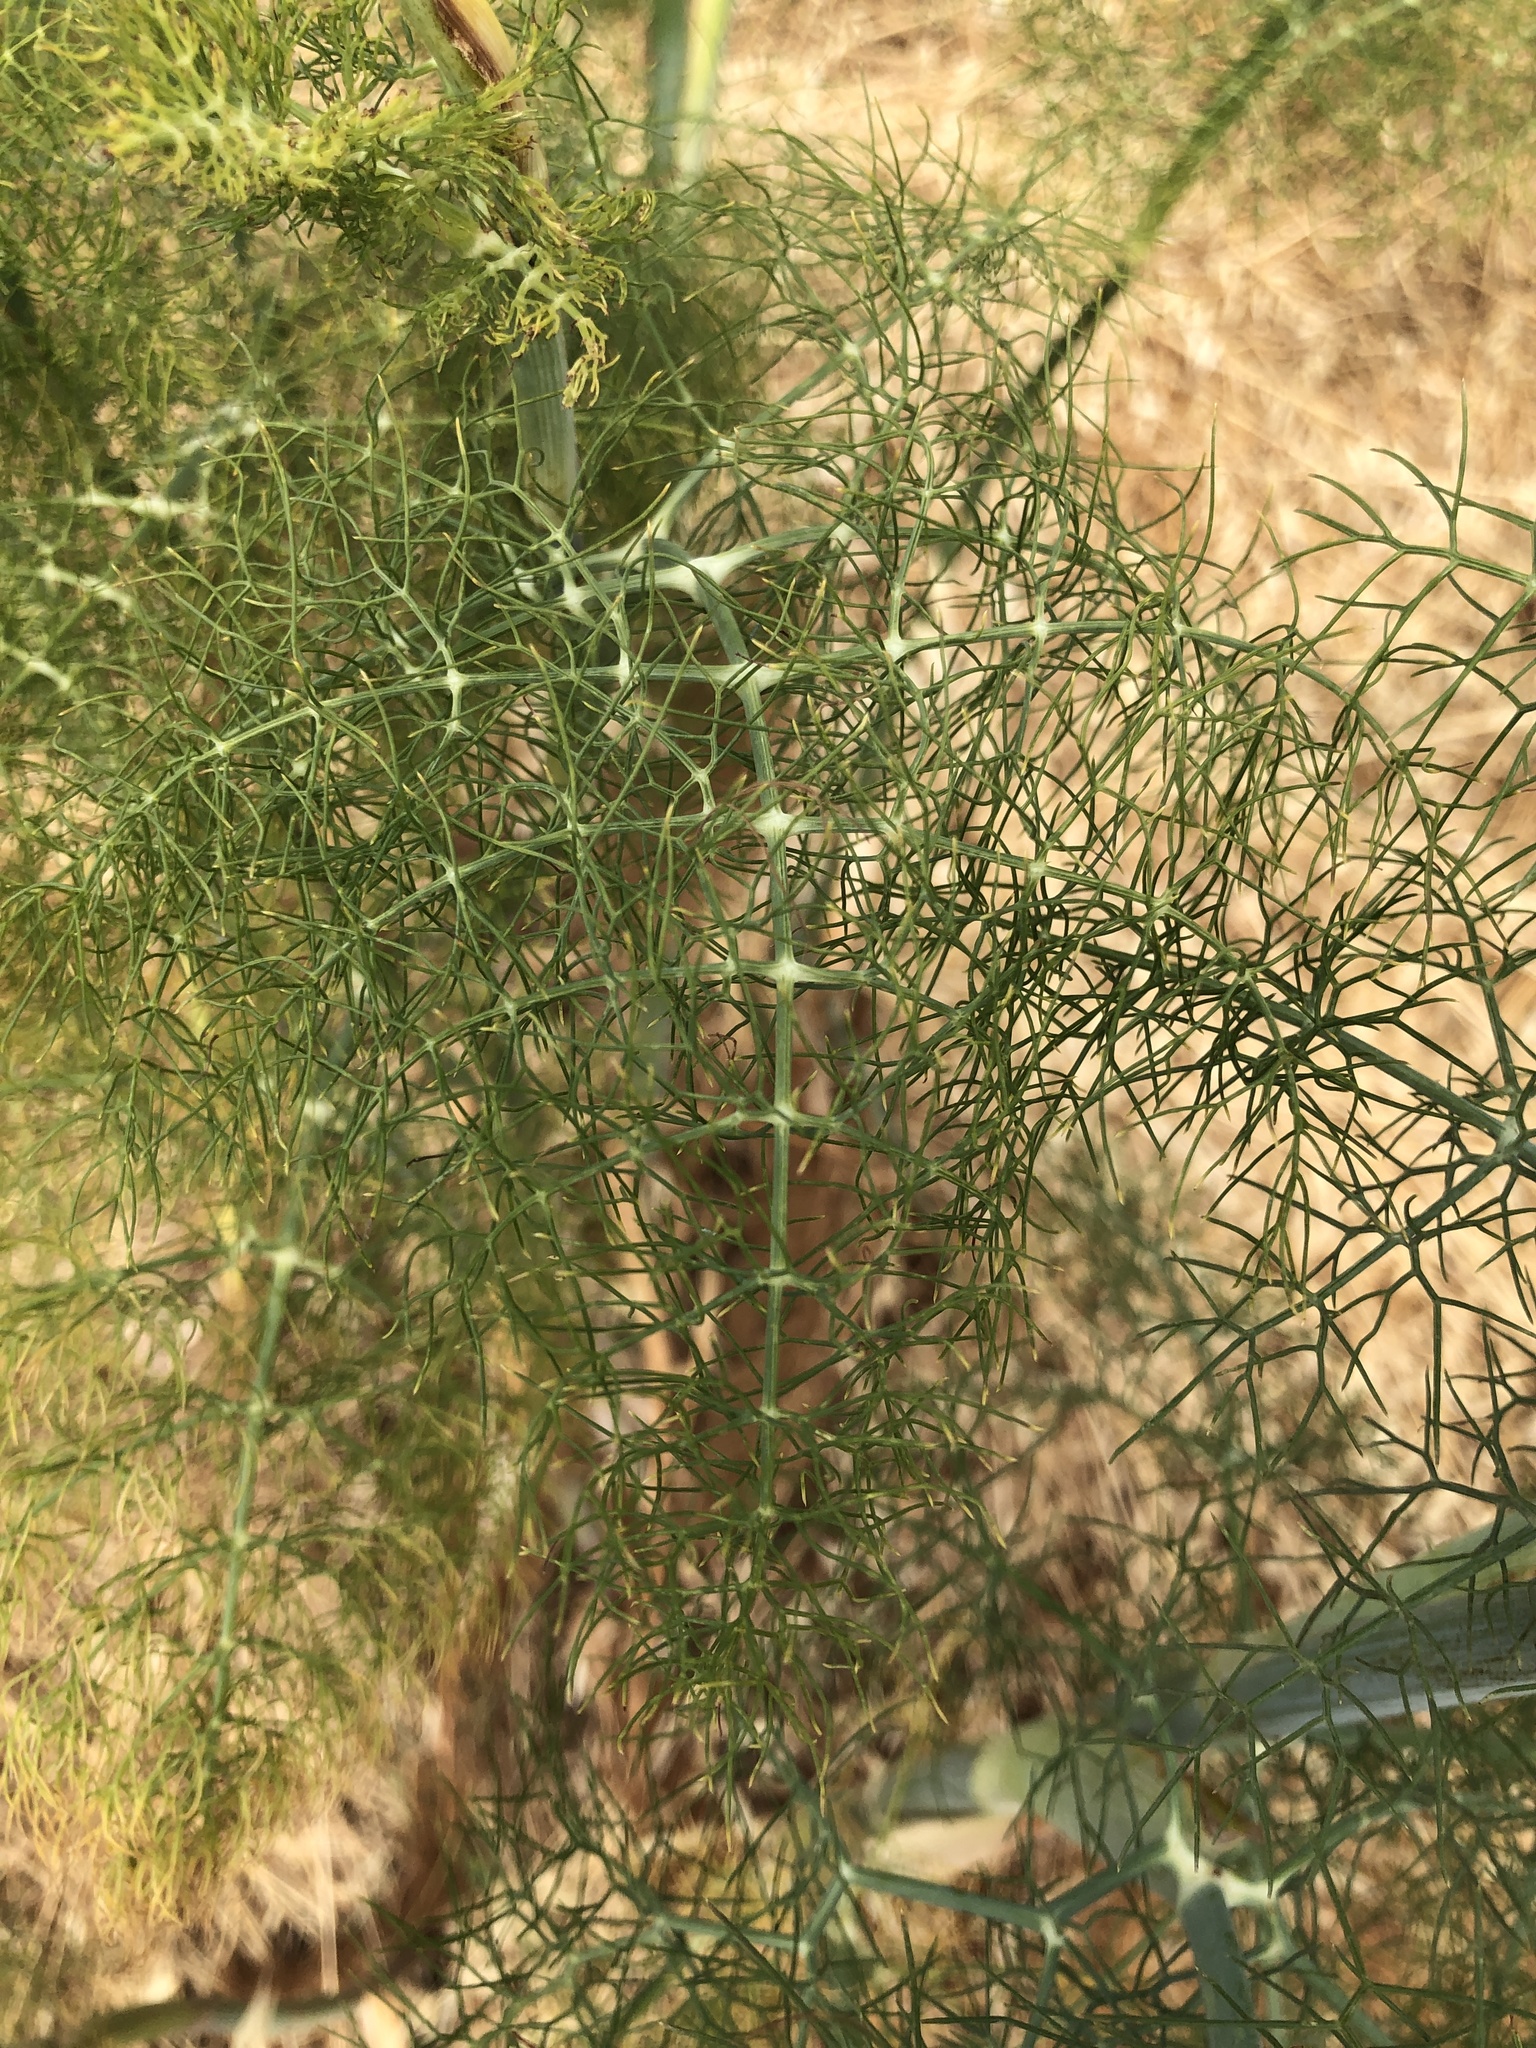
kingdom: Plantae
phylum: Tracheophyta
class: Magnoliopsida
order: Apiales
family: Apiaceae
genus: Foeniculum
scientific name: Foeniculum vulgare
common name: Fennel
